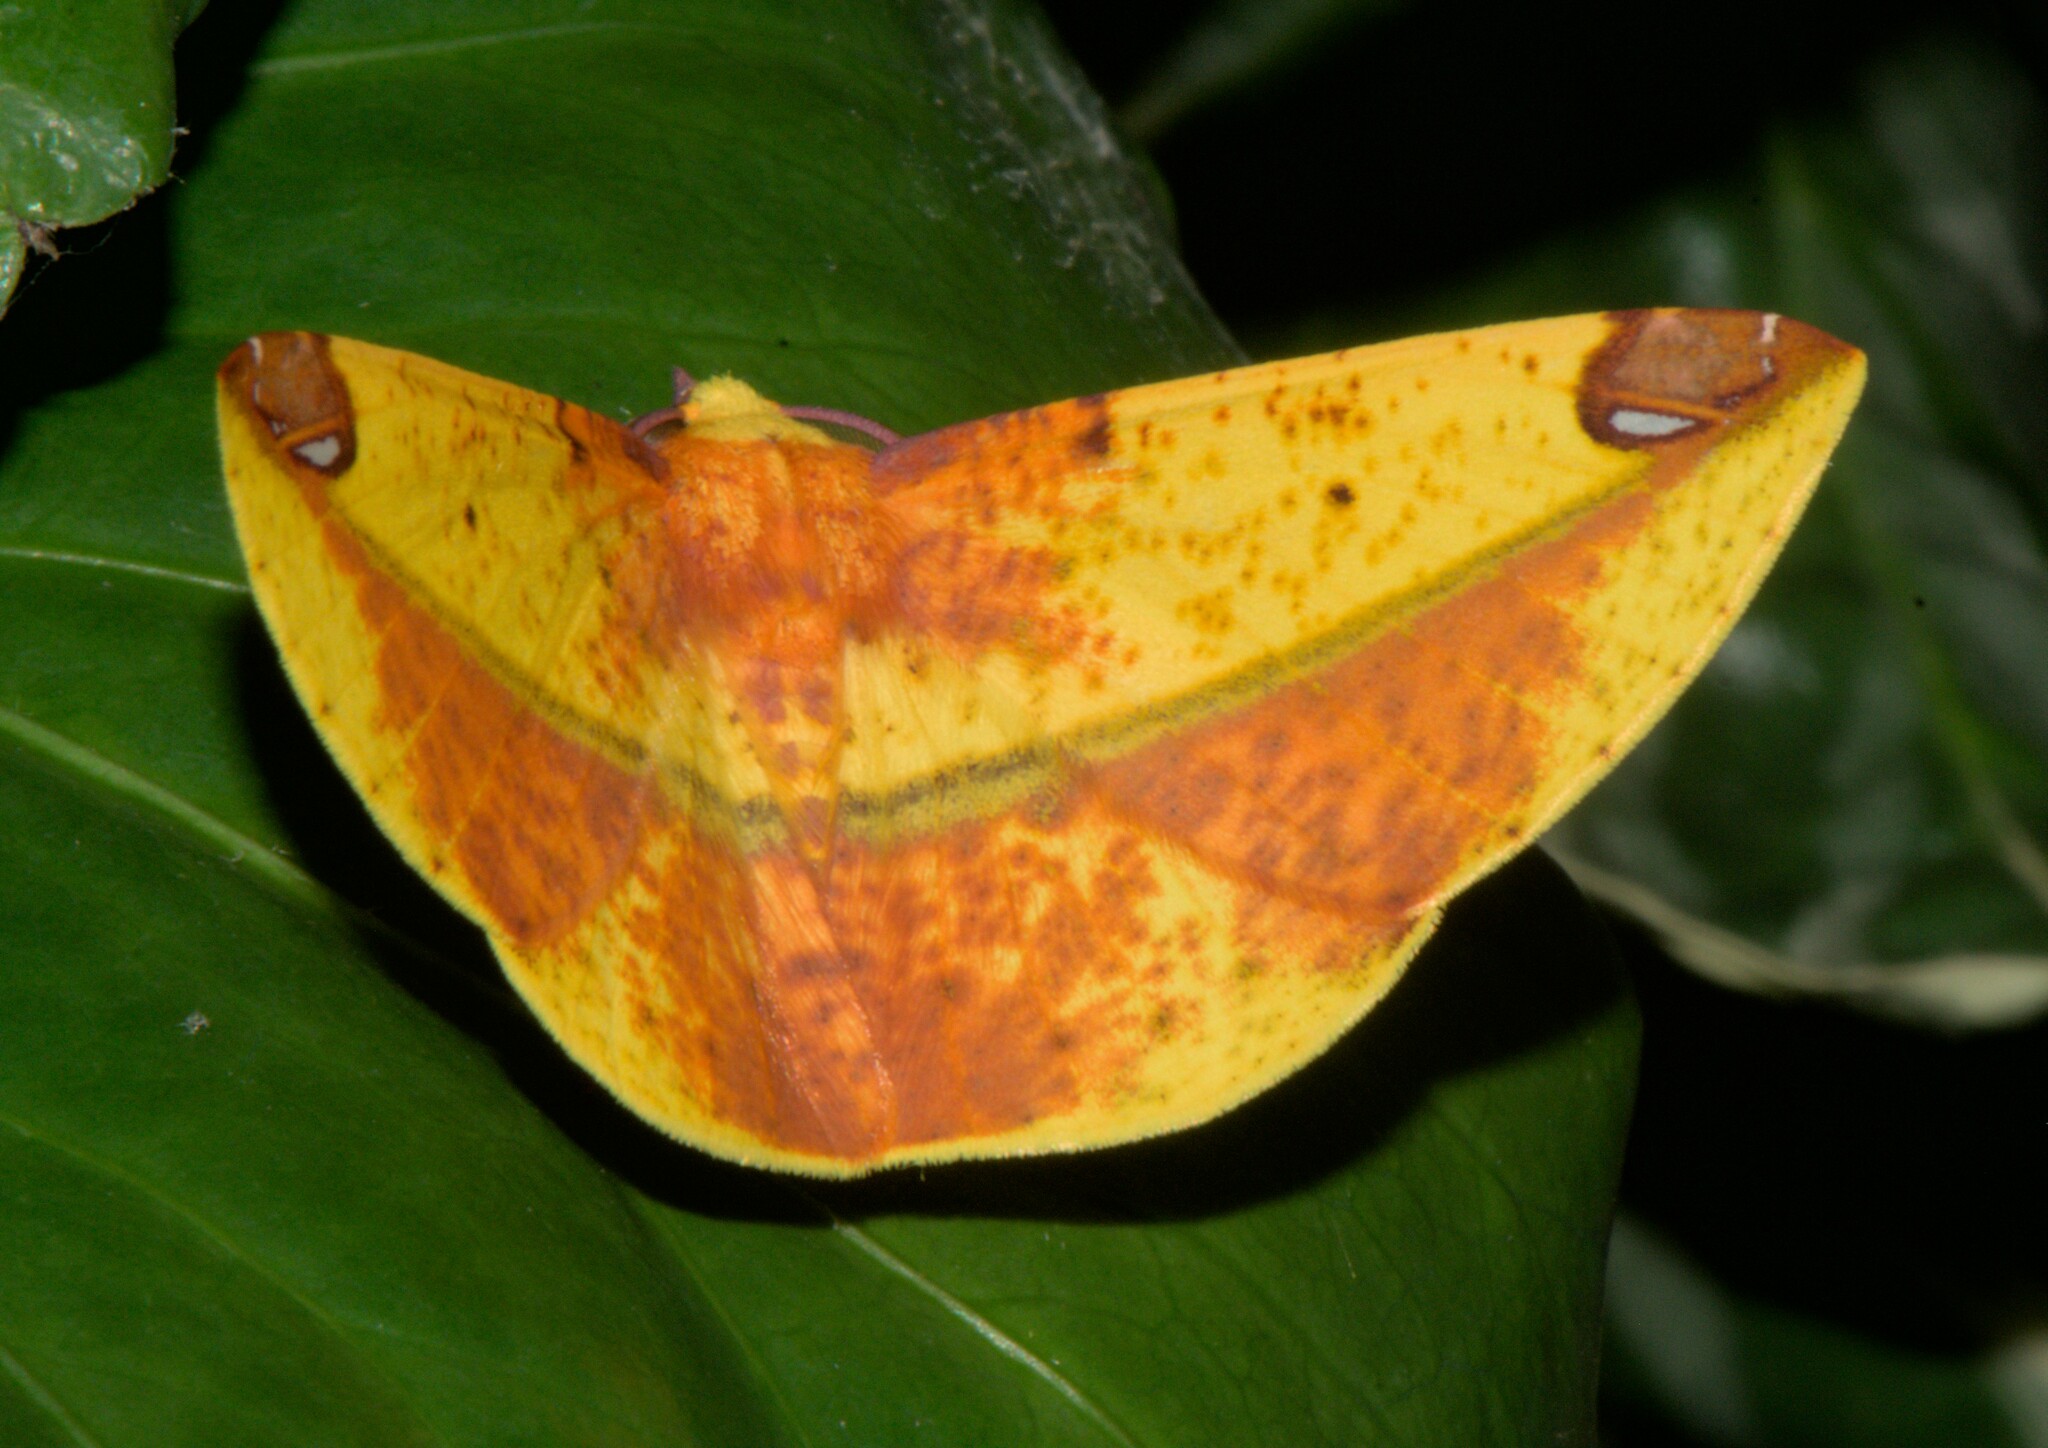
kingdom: Animalia
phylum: Arthropoda
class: Insecta
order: Lepidoptera
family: Geometridae
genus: Mimomiza
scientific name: Mimomiza cruentaria
